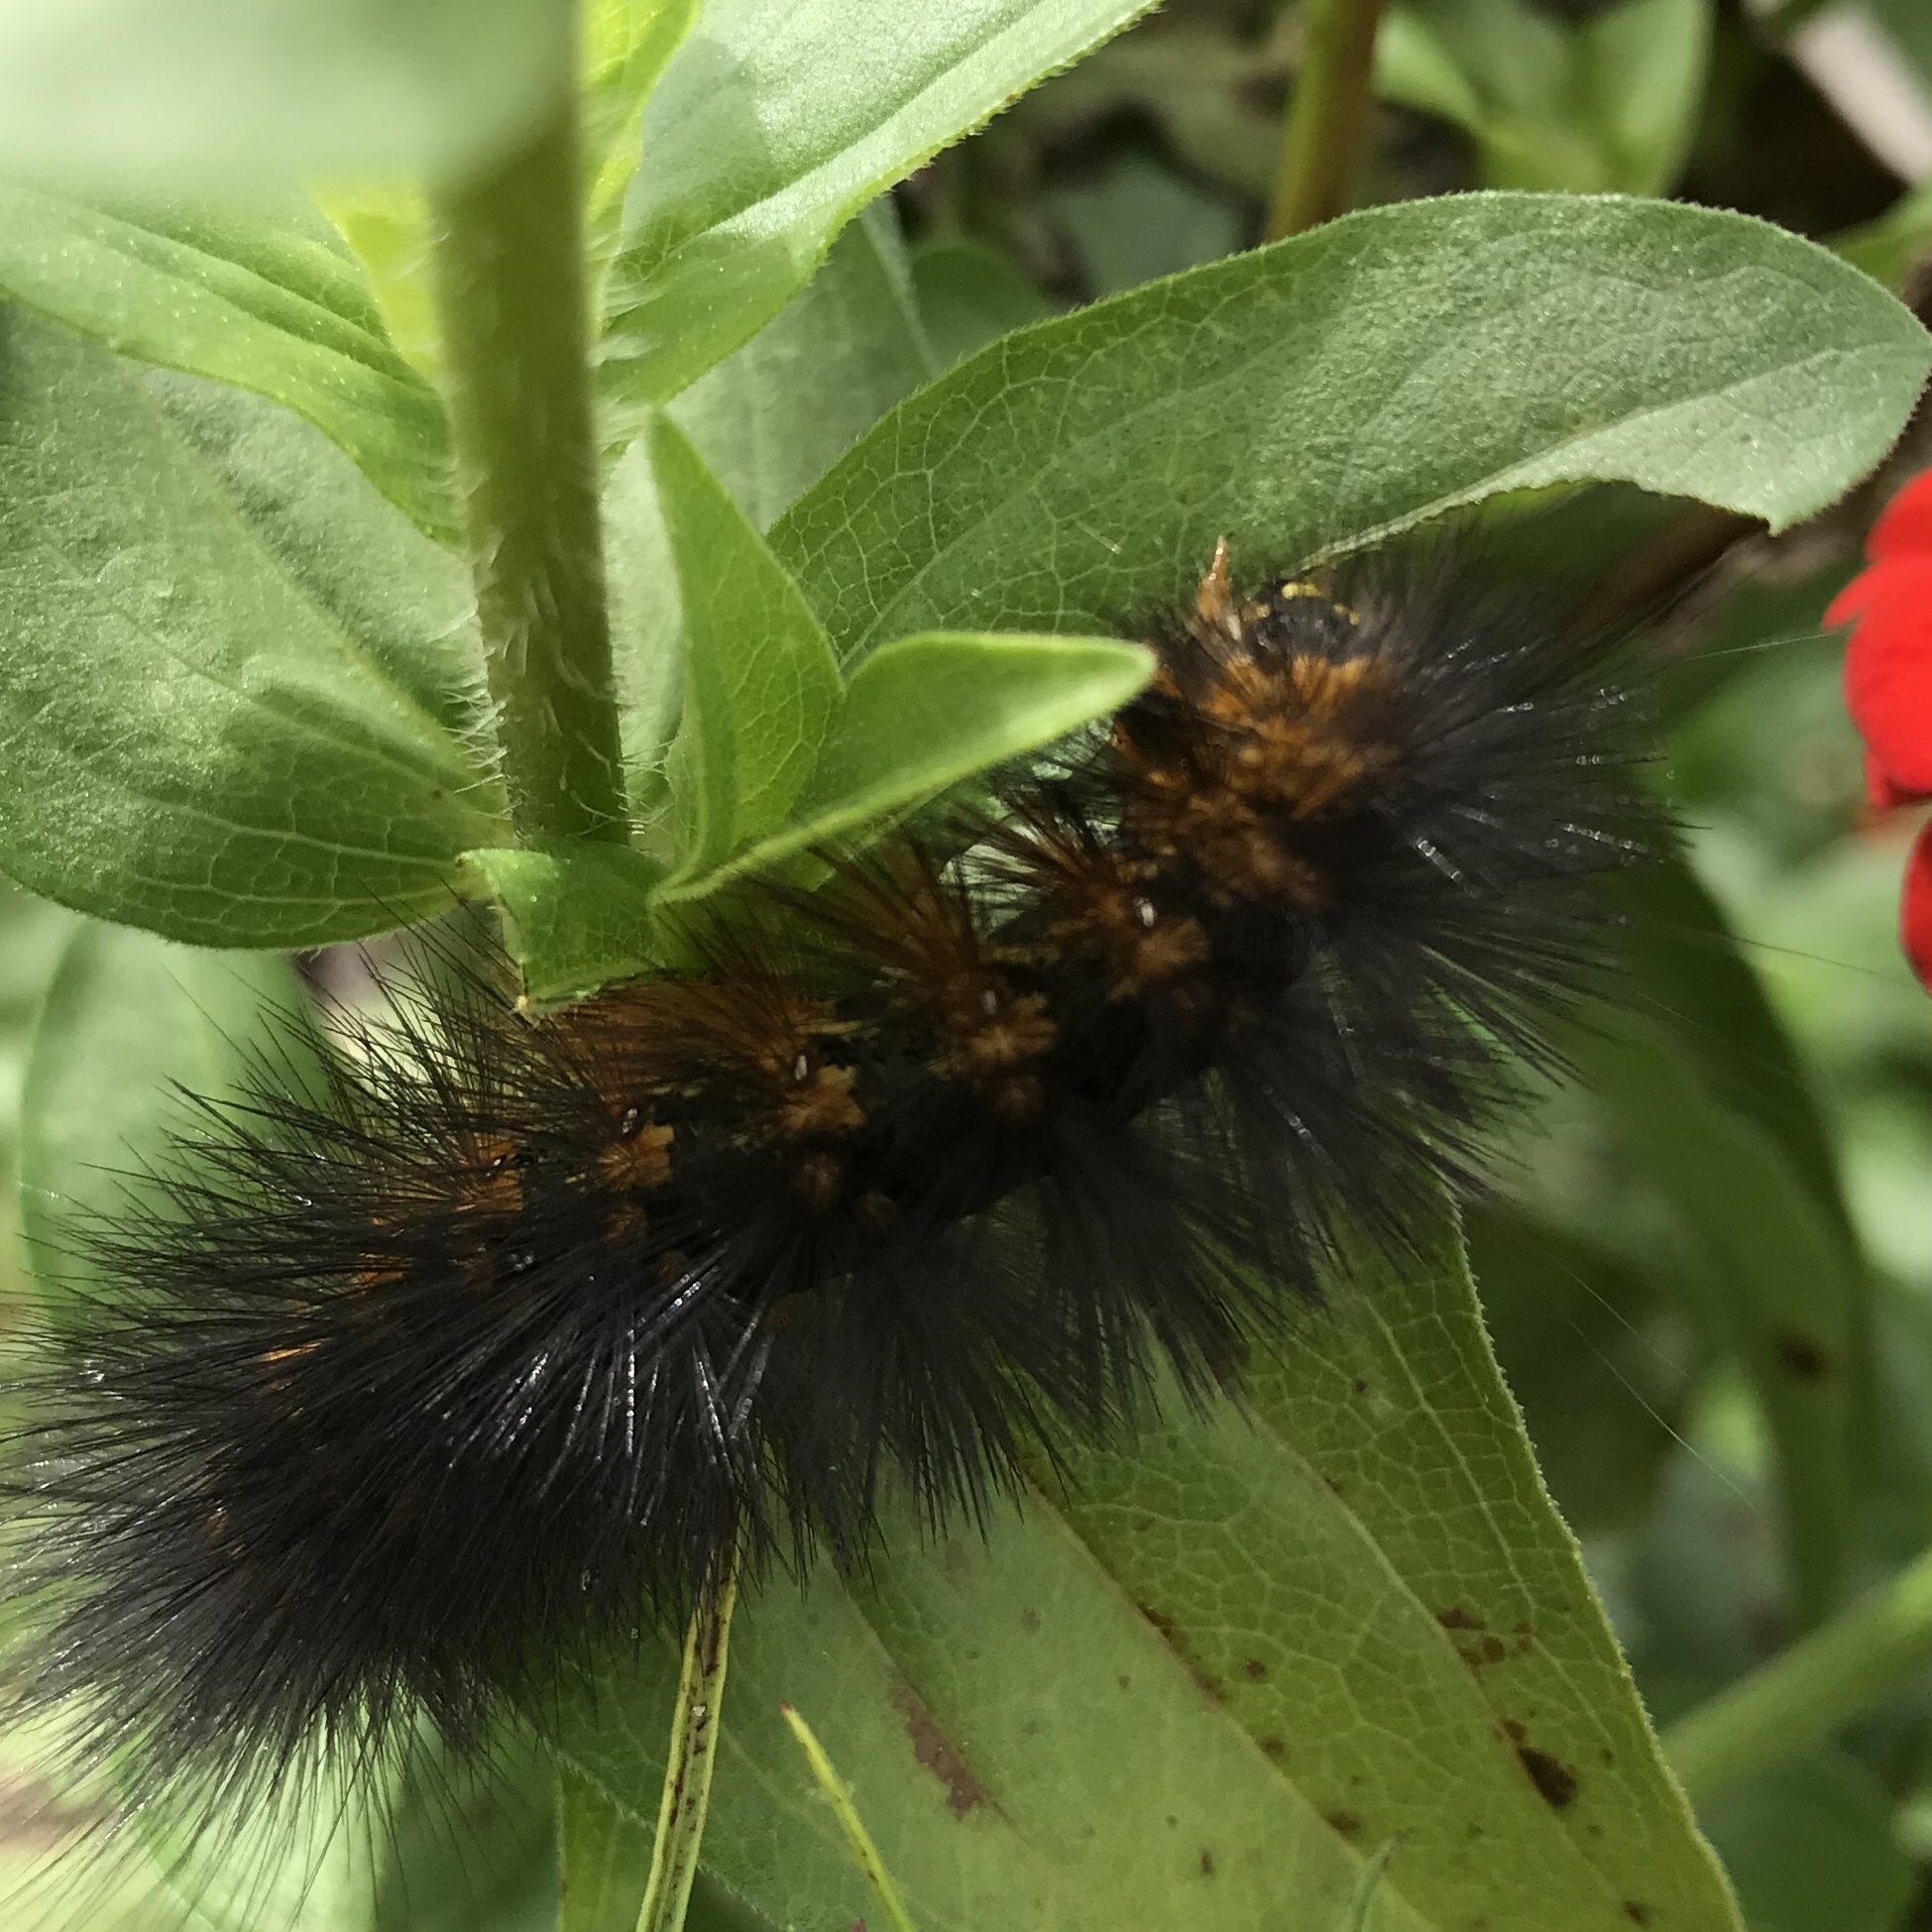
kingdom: Animalia
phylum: Arthropoda
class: Insecta
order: Lepidoptera
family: Erebidae
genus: Estigmene
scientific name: Estigmene acrea
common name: Salt marsh moth
